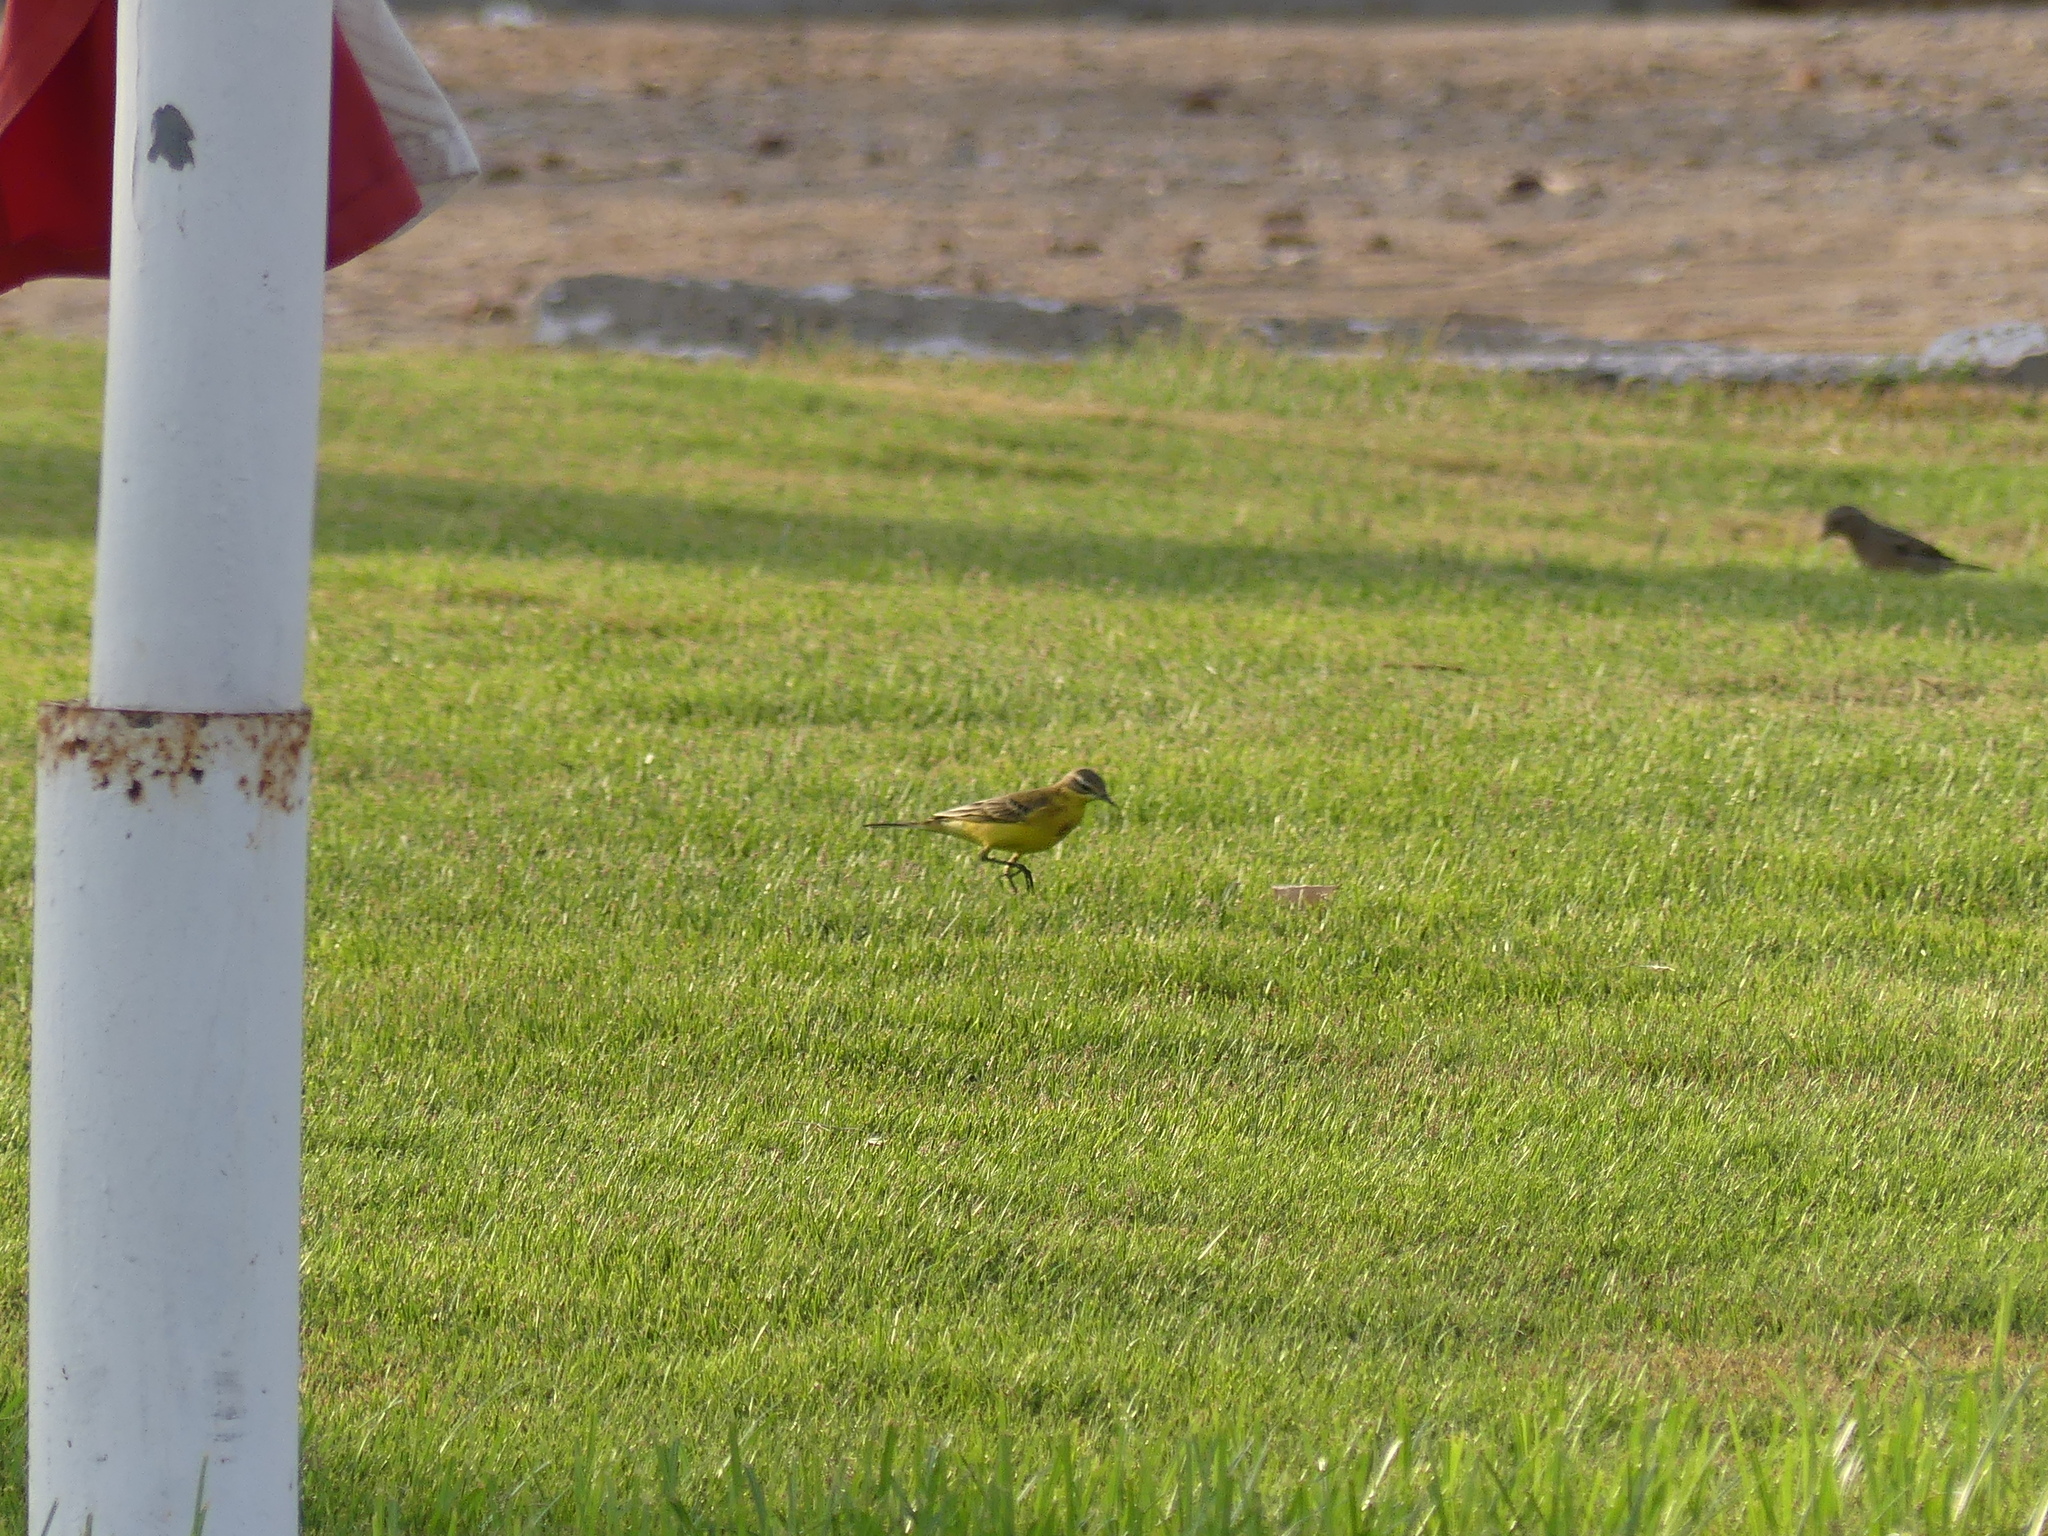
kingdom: Animalia
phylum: Chordata
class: Aves
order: Passeriformes
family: Motacillidae
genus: Motacilla
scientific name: Motacilla flava
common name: Western yellow wagtail
